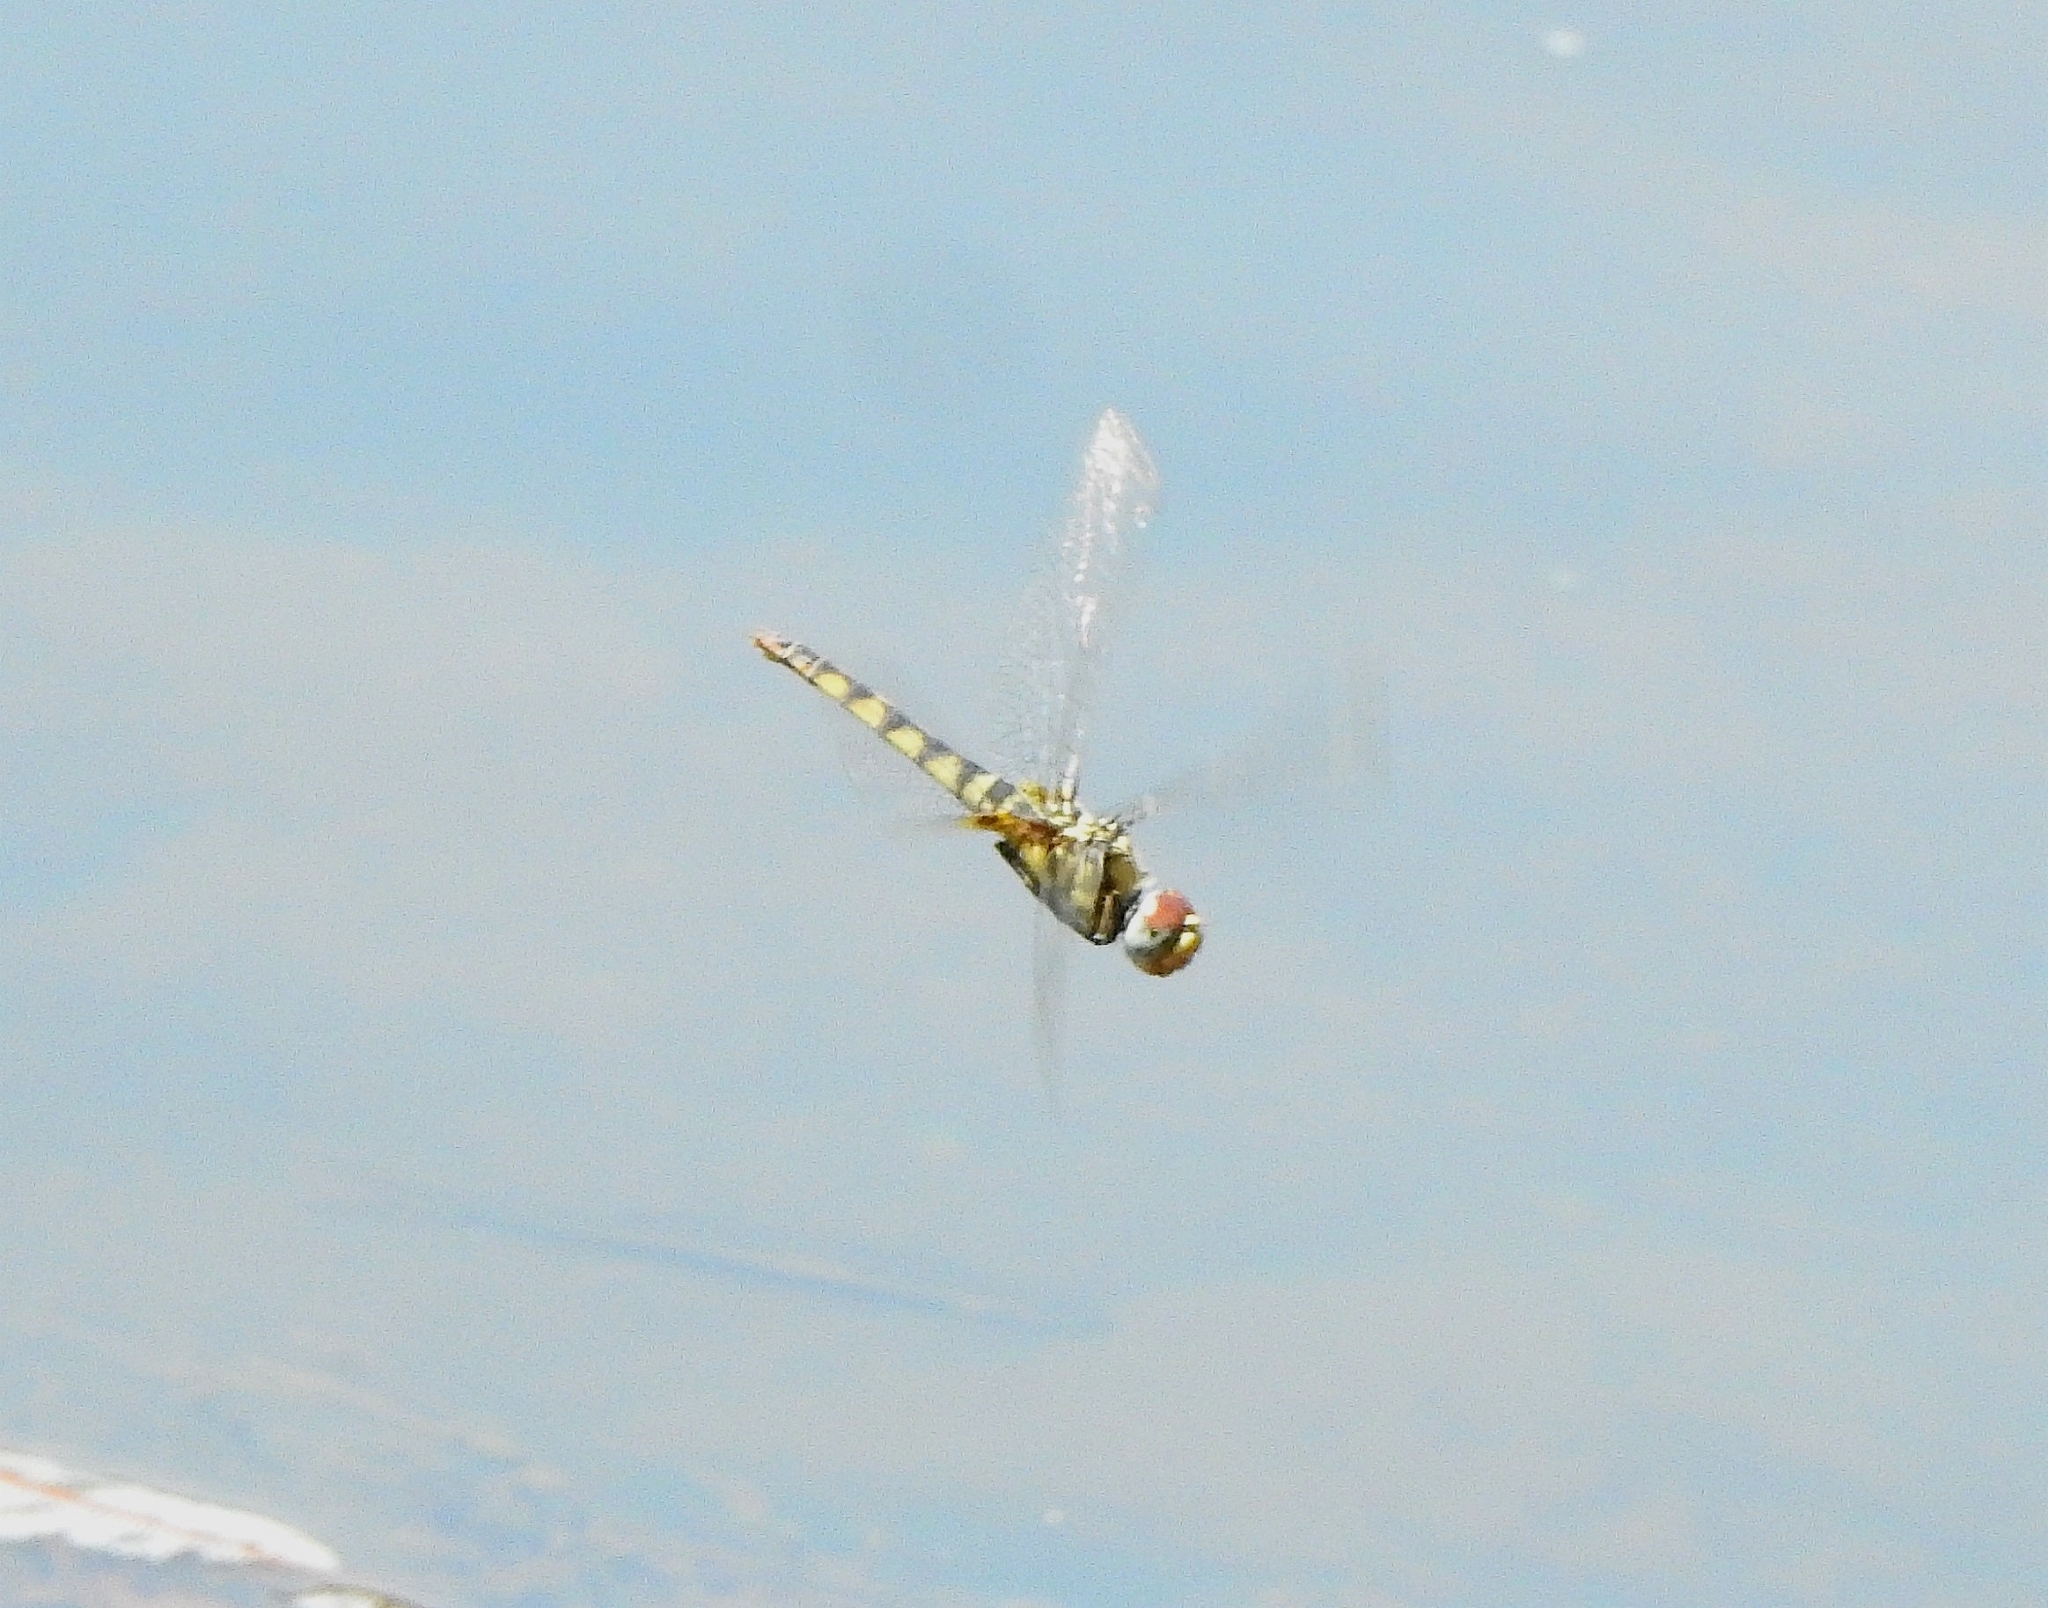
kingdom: Animalia
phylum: Arthropoda
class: Insecta
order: Odonata
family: Libellulidae
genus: Urothemis
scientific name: Urothemis signata
